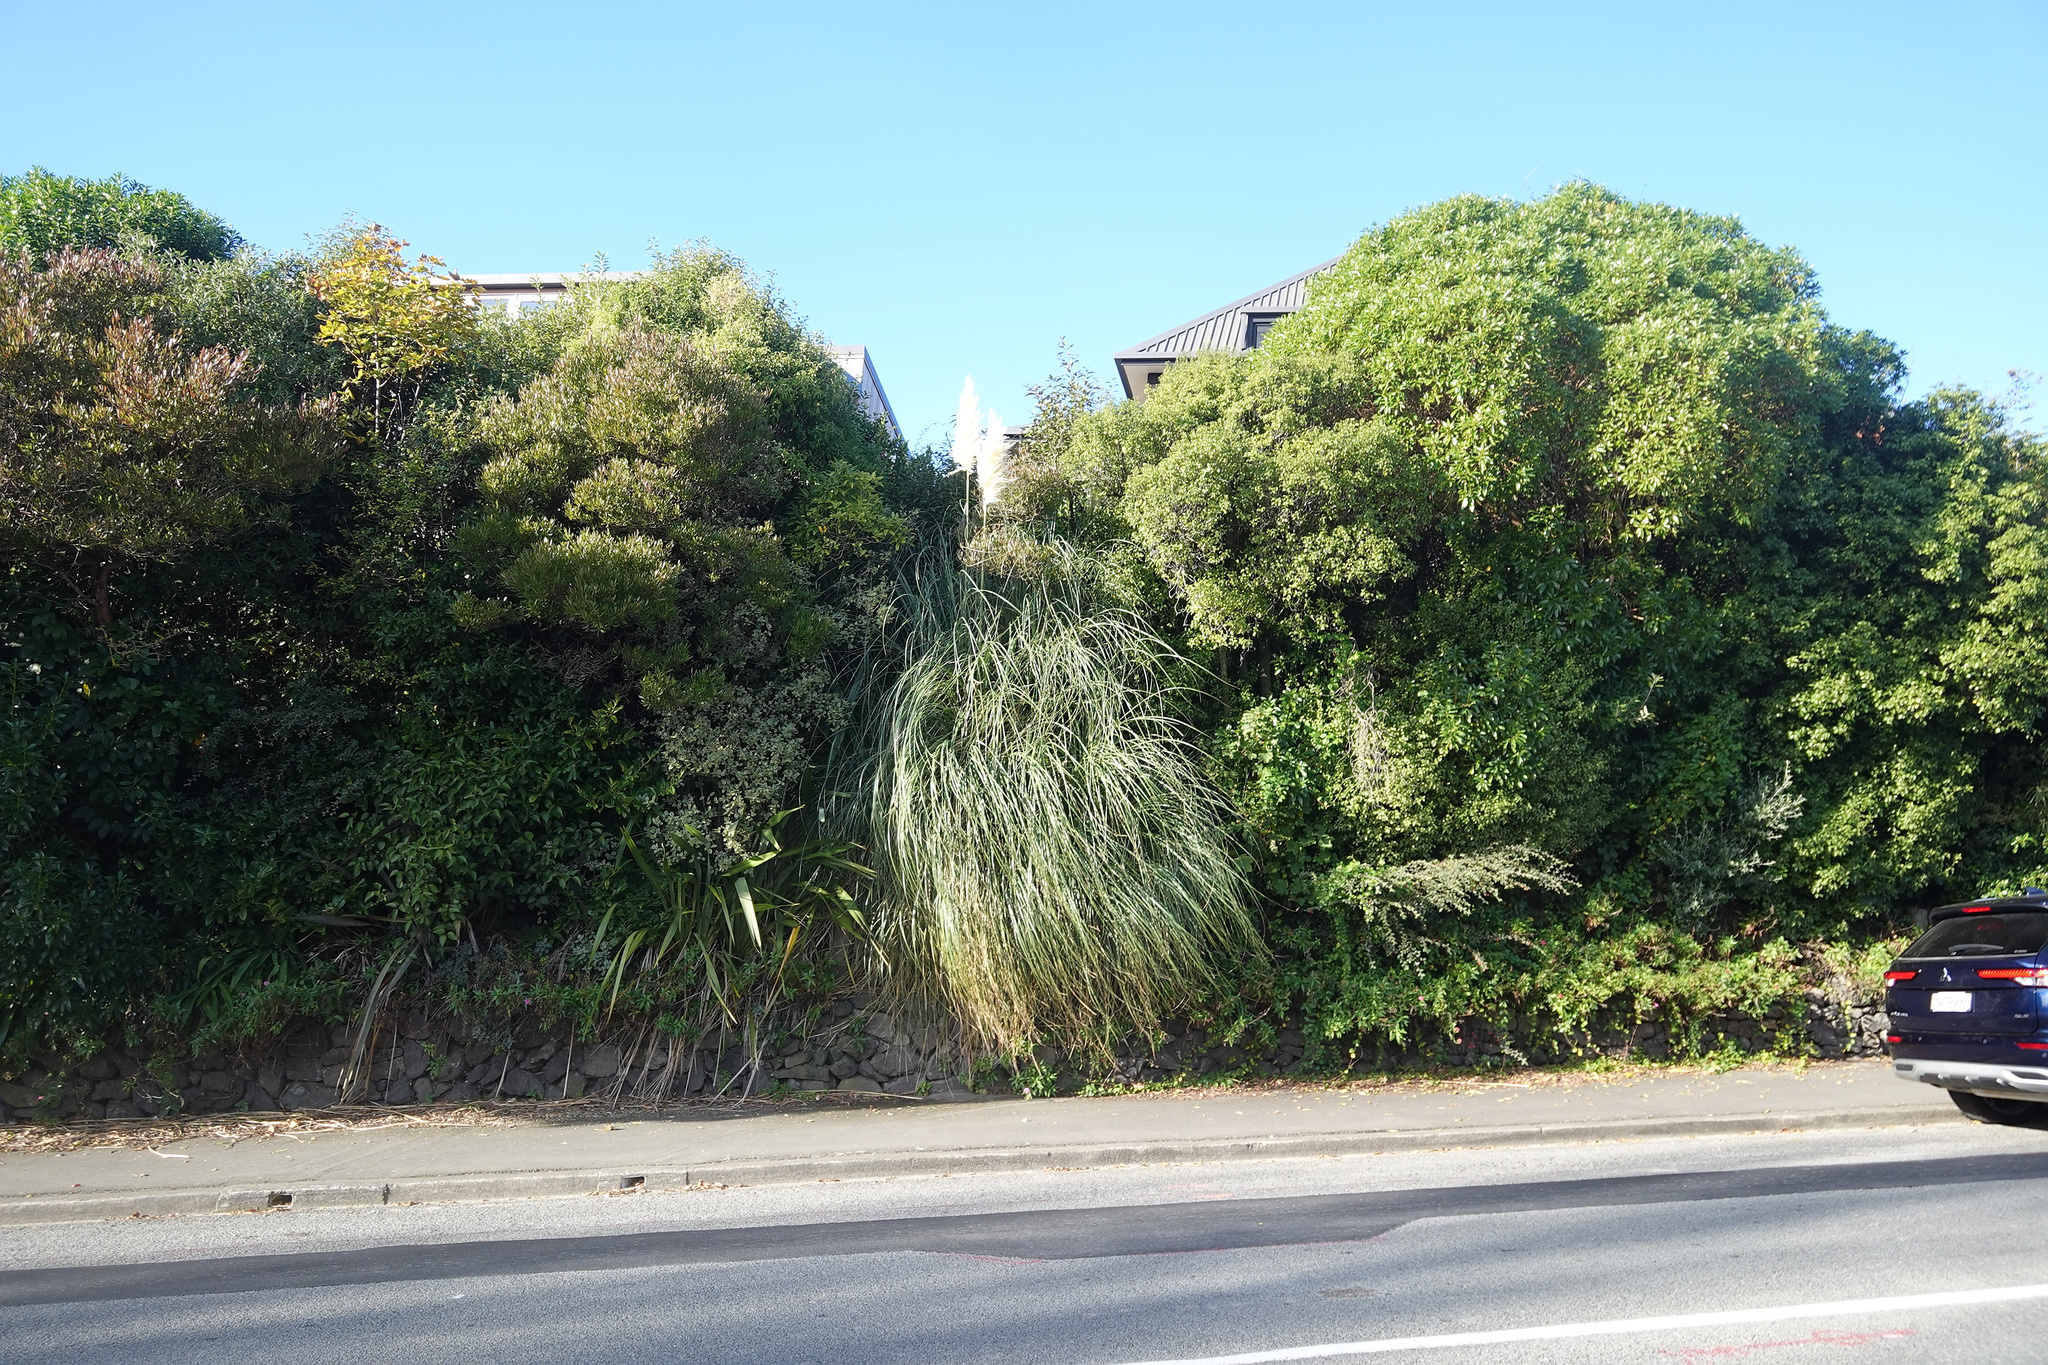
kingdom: Plantae
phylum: Tracheophyta
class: Liliopsida
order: Poales
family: Poaceae
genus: Cortaderia
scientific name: Cortaderia selloana
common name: Uruguayan pampas grass
